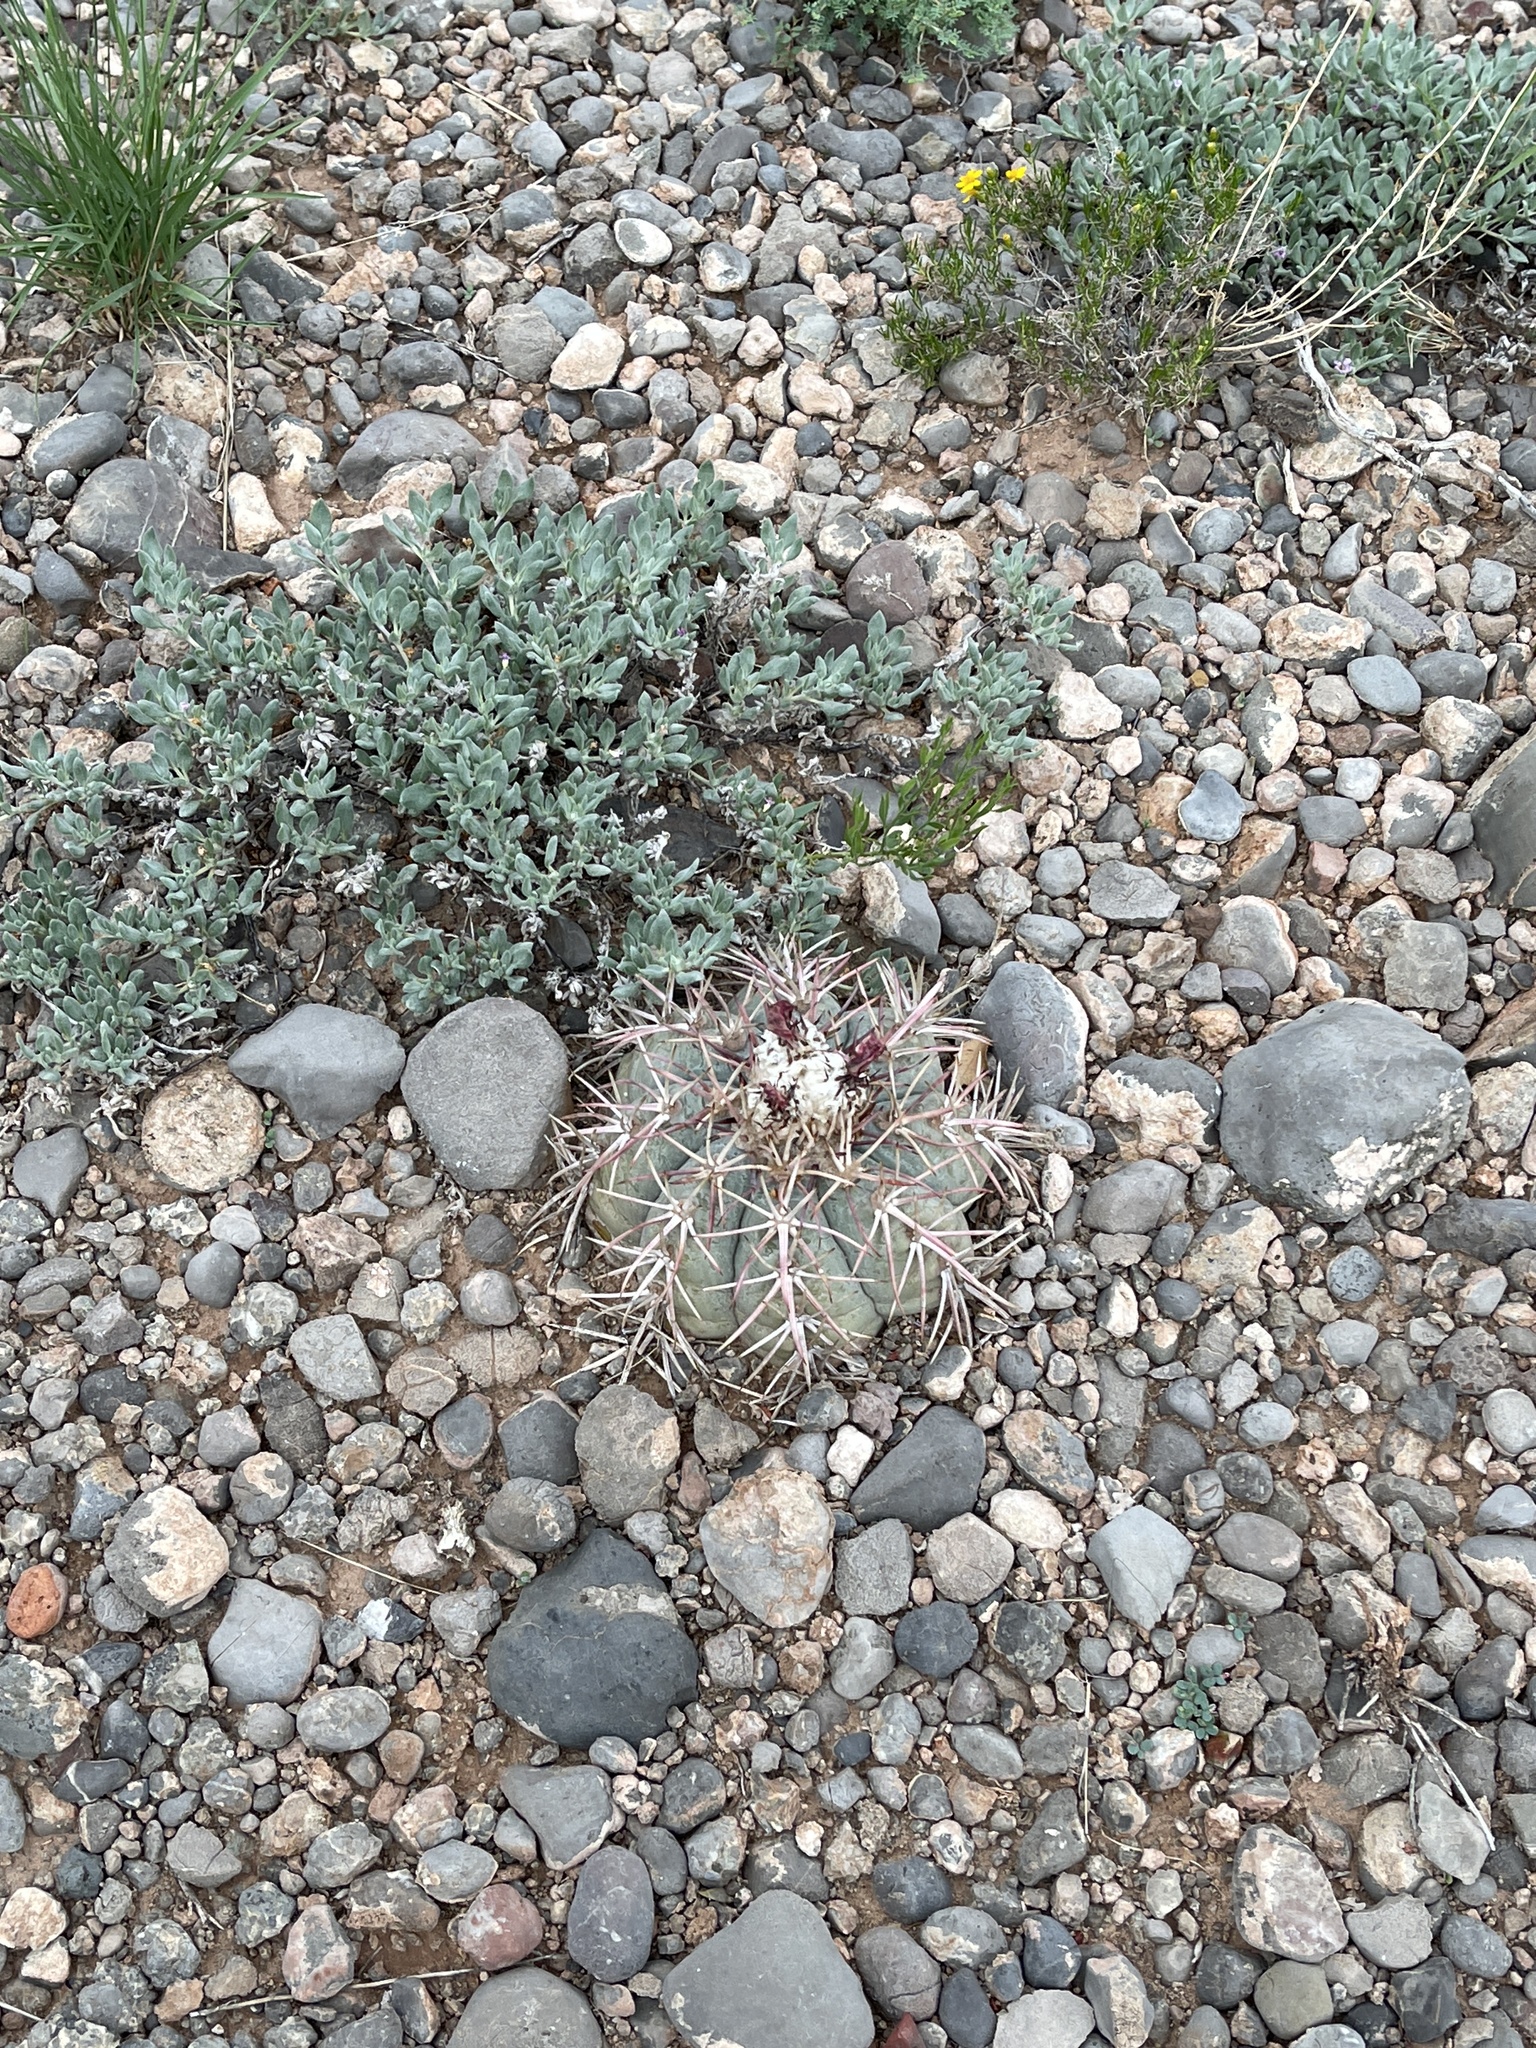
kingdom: Plantae
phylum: Tracheophyta
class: Magnoliopsida
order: Caryophyllales
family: Cactaceae
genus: Echinocactus
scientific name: Echinocactus horizonthalonius
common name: Devilshead
